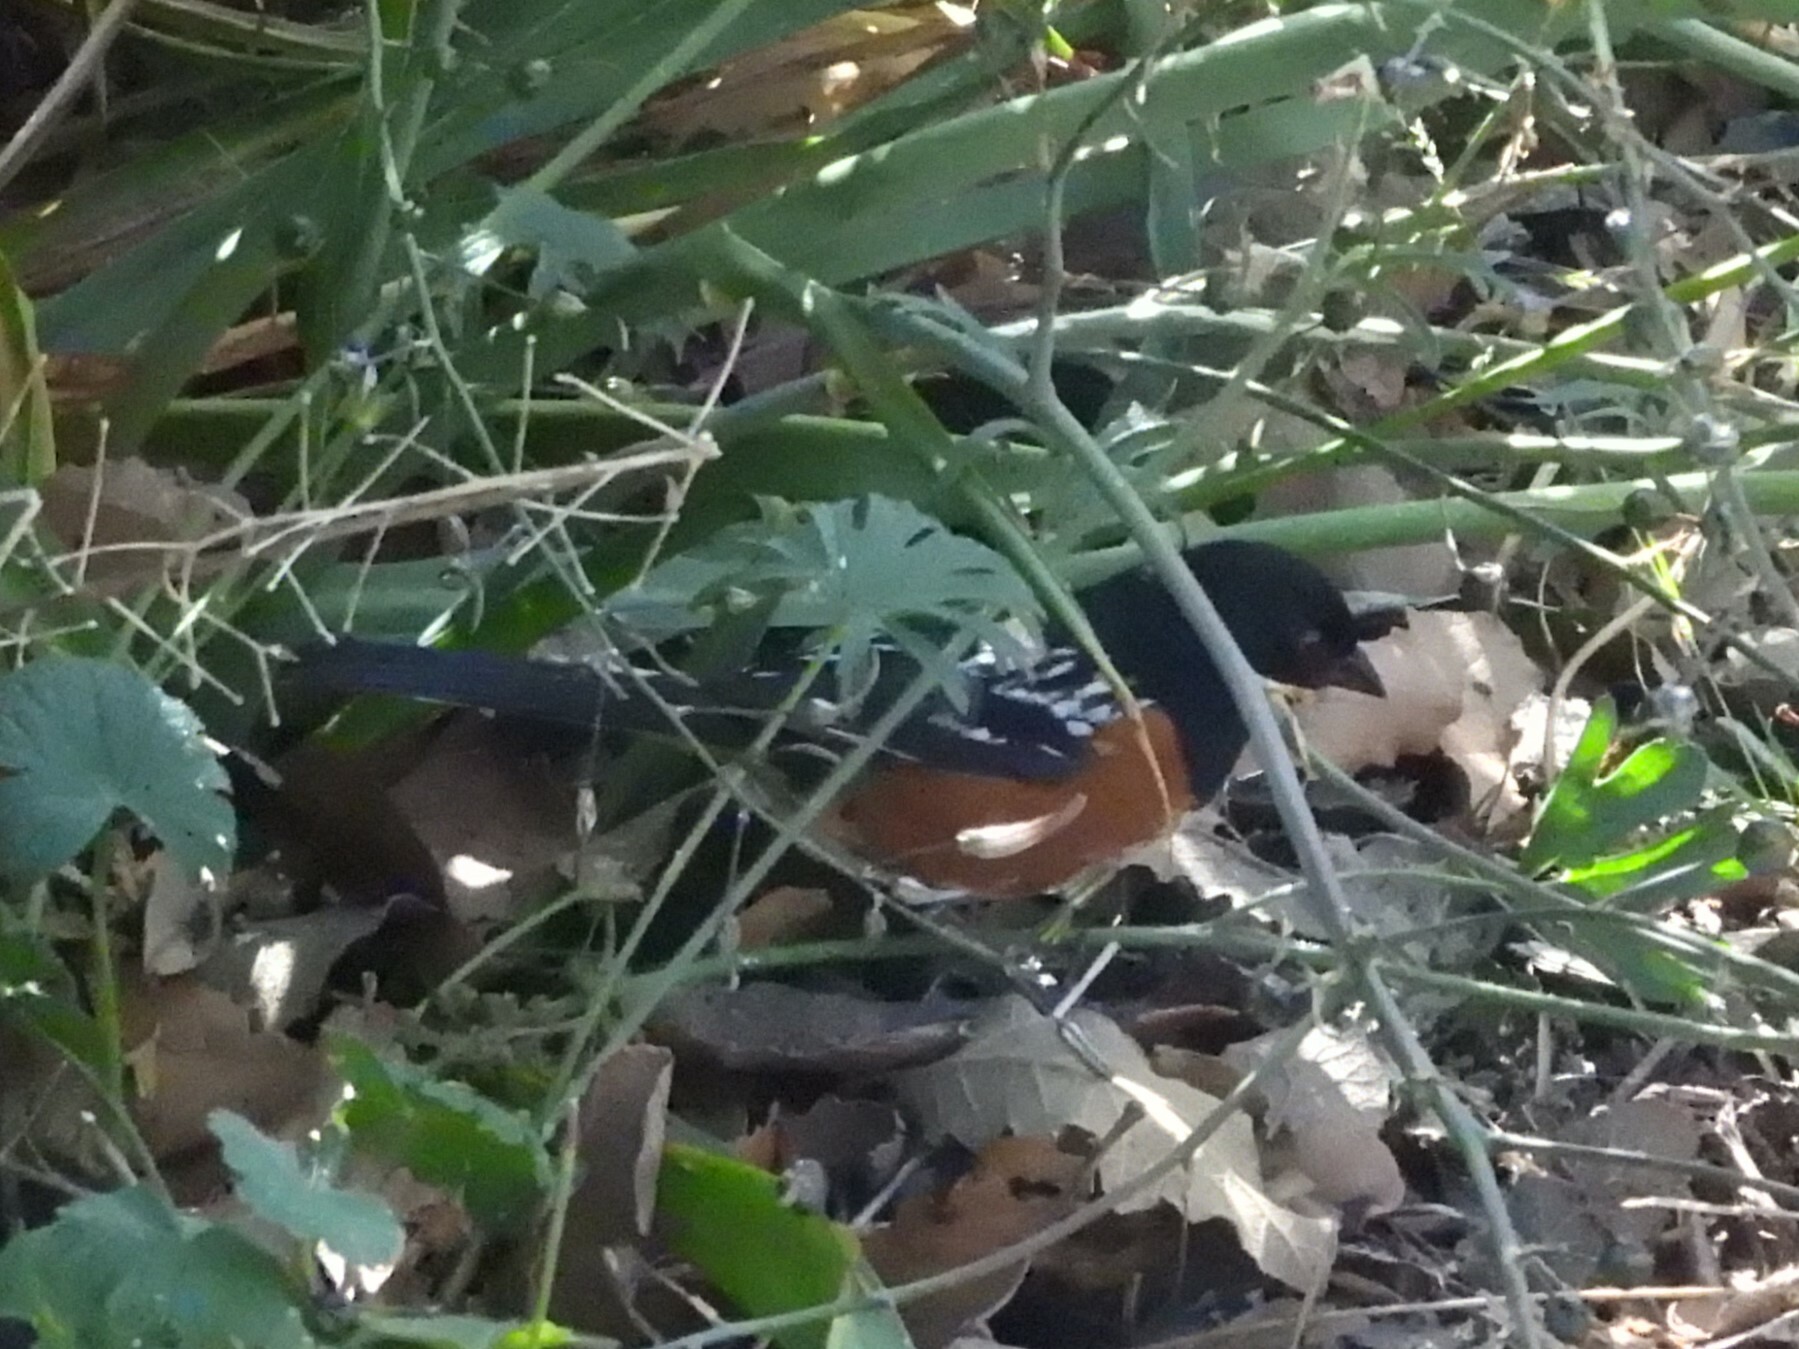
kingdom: Animalia
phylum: Chordata
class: Aves
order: Passeriformes
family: Passerellidae
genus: Pipilo
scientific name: Pipilo maculatus
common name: Spotted towhee
